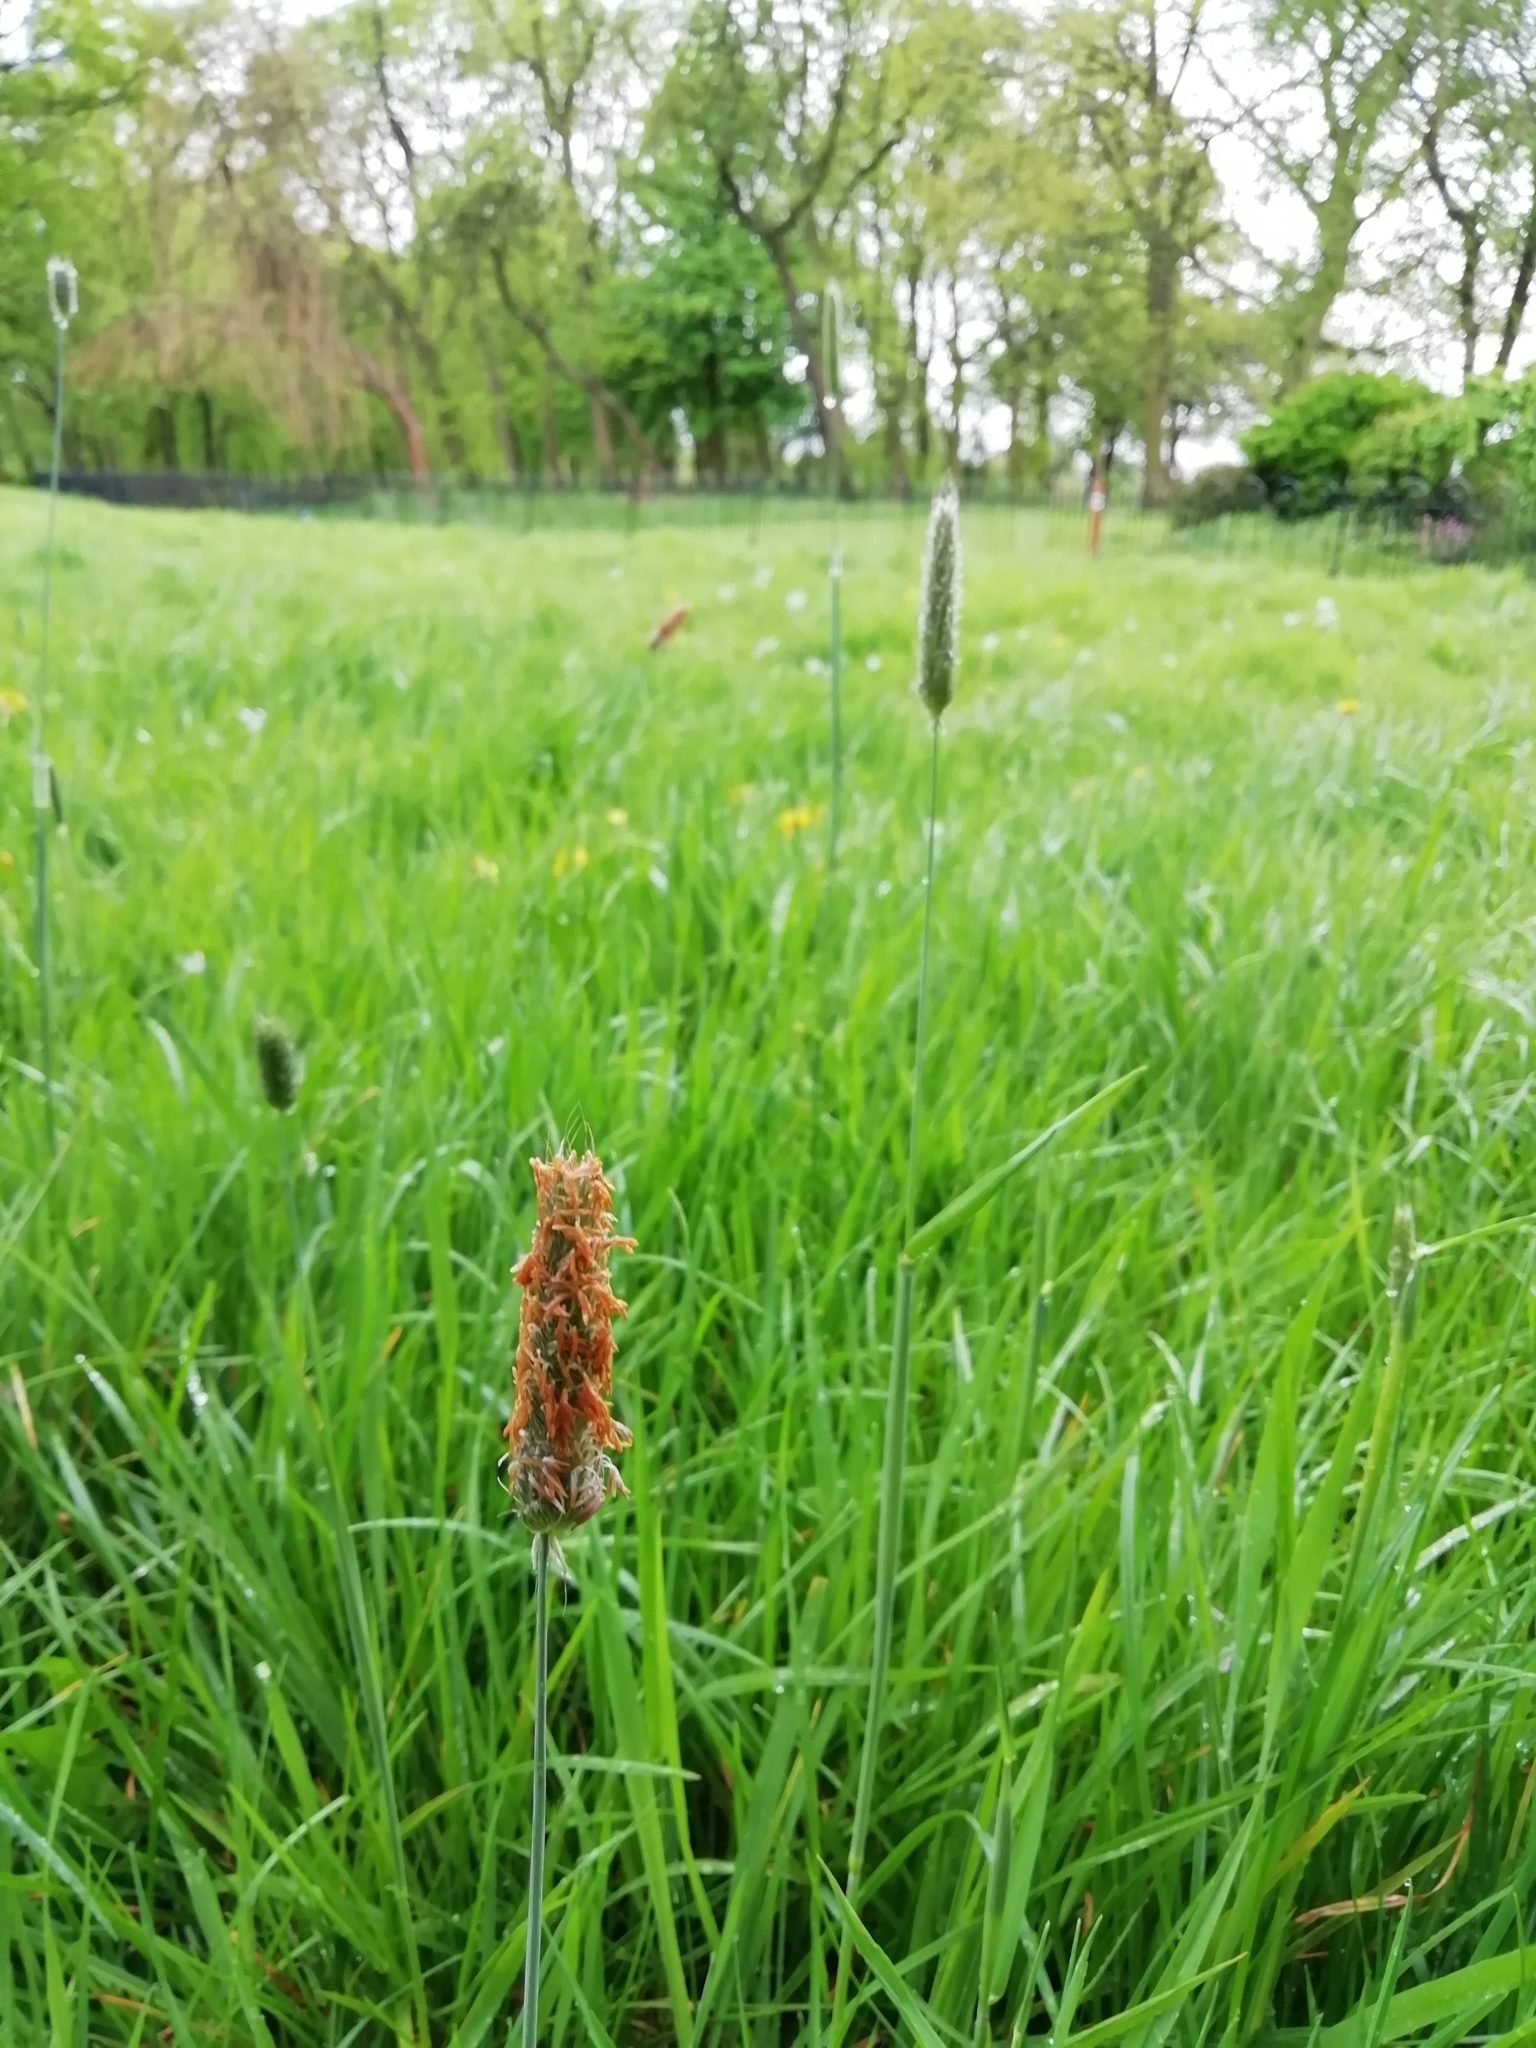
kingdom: Plantae
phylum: Tracheophyta
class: Liliopsida
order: Poales
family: Poaceae
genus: Alopecurus
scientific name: Alopecurus pratensis
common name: Meadow foxtail
